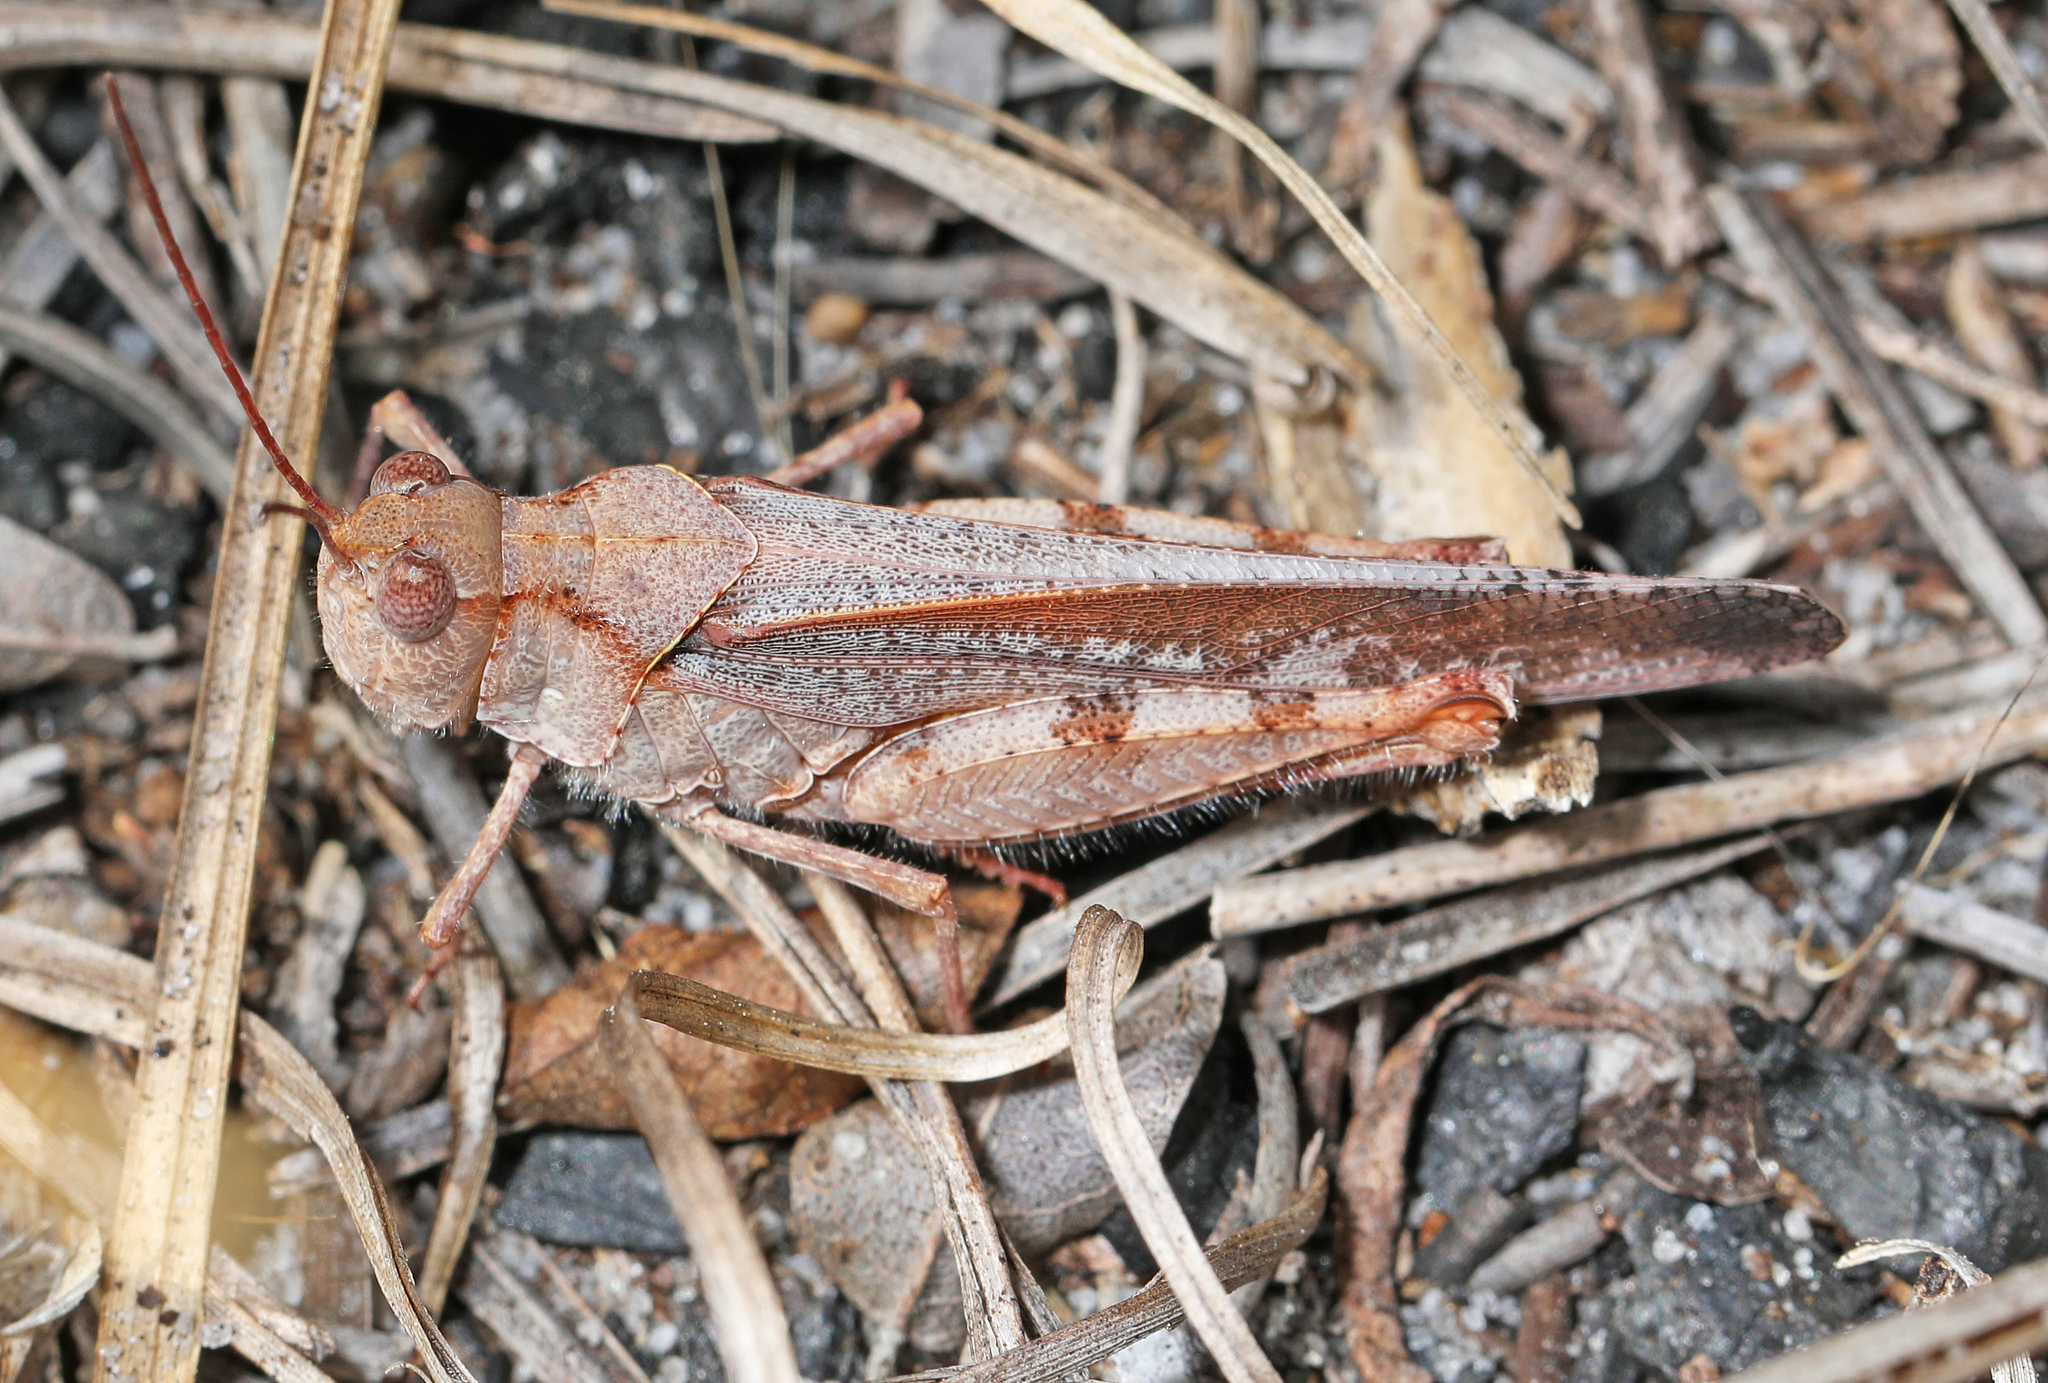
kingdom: Animalia
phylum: Arthropoda
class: Insecta
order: Orthoptera
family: Acrididae
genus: Spharagemon
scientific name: Spharagemon marmoratum
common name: Marbled grasshopper
